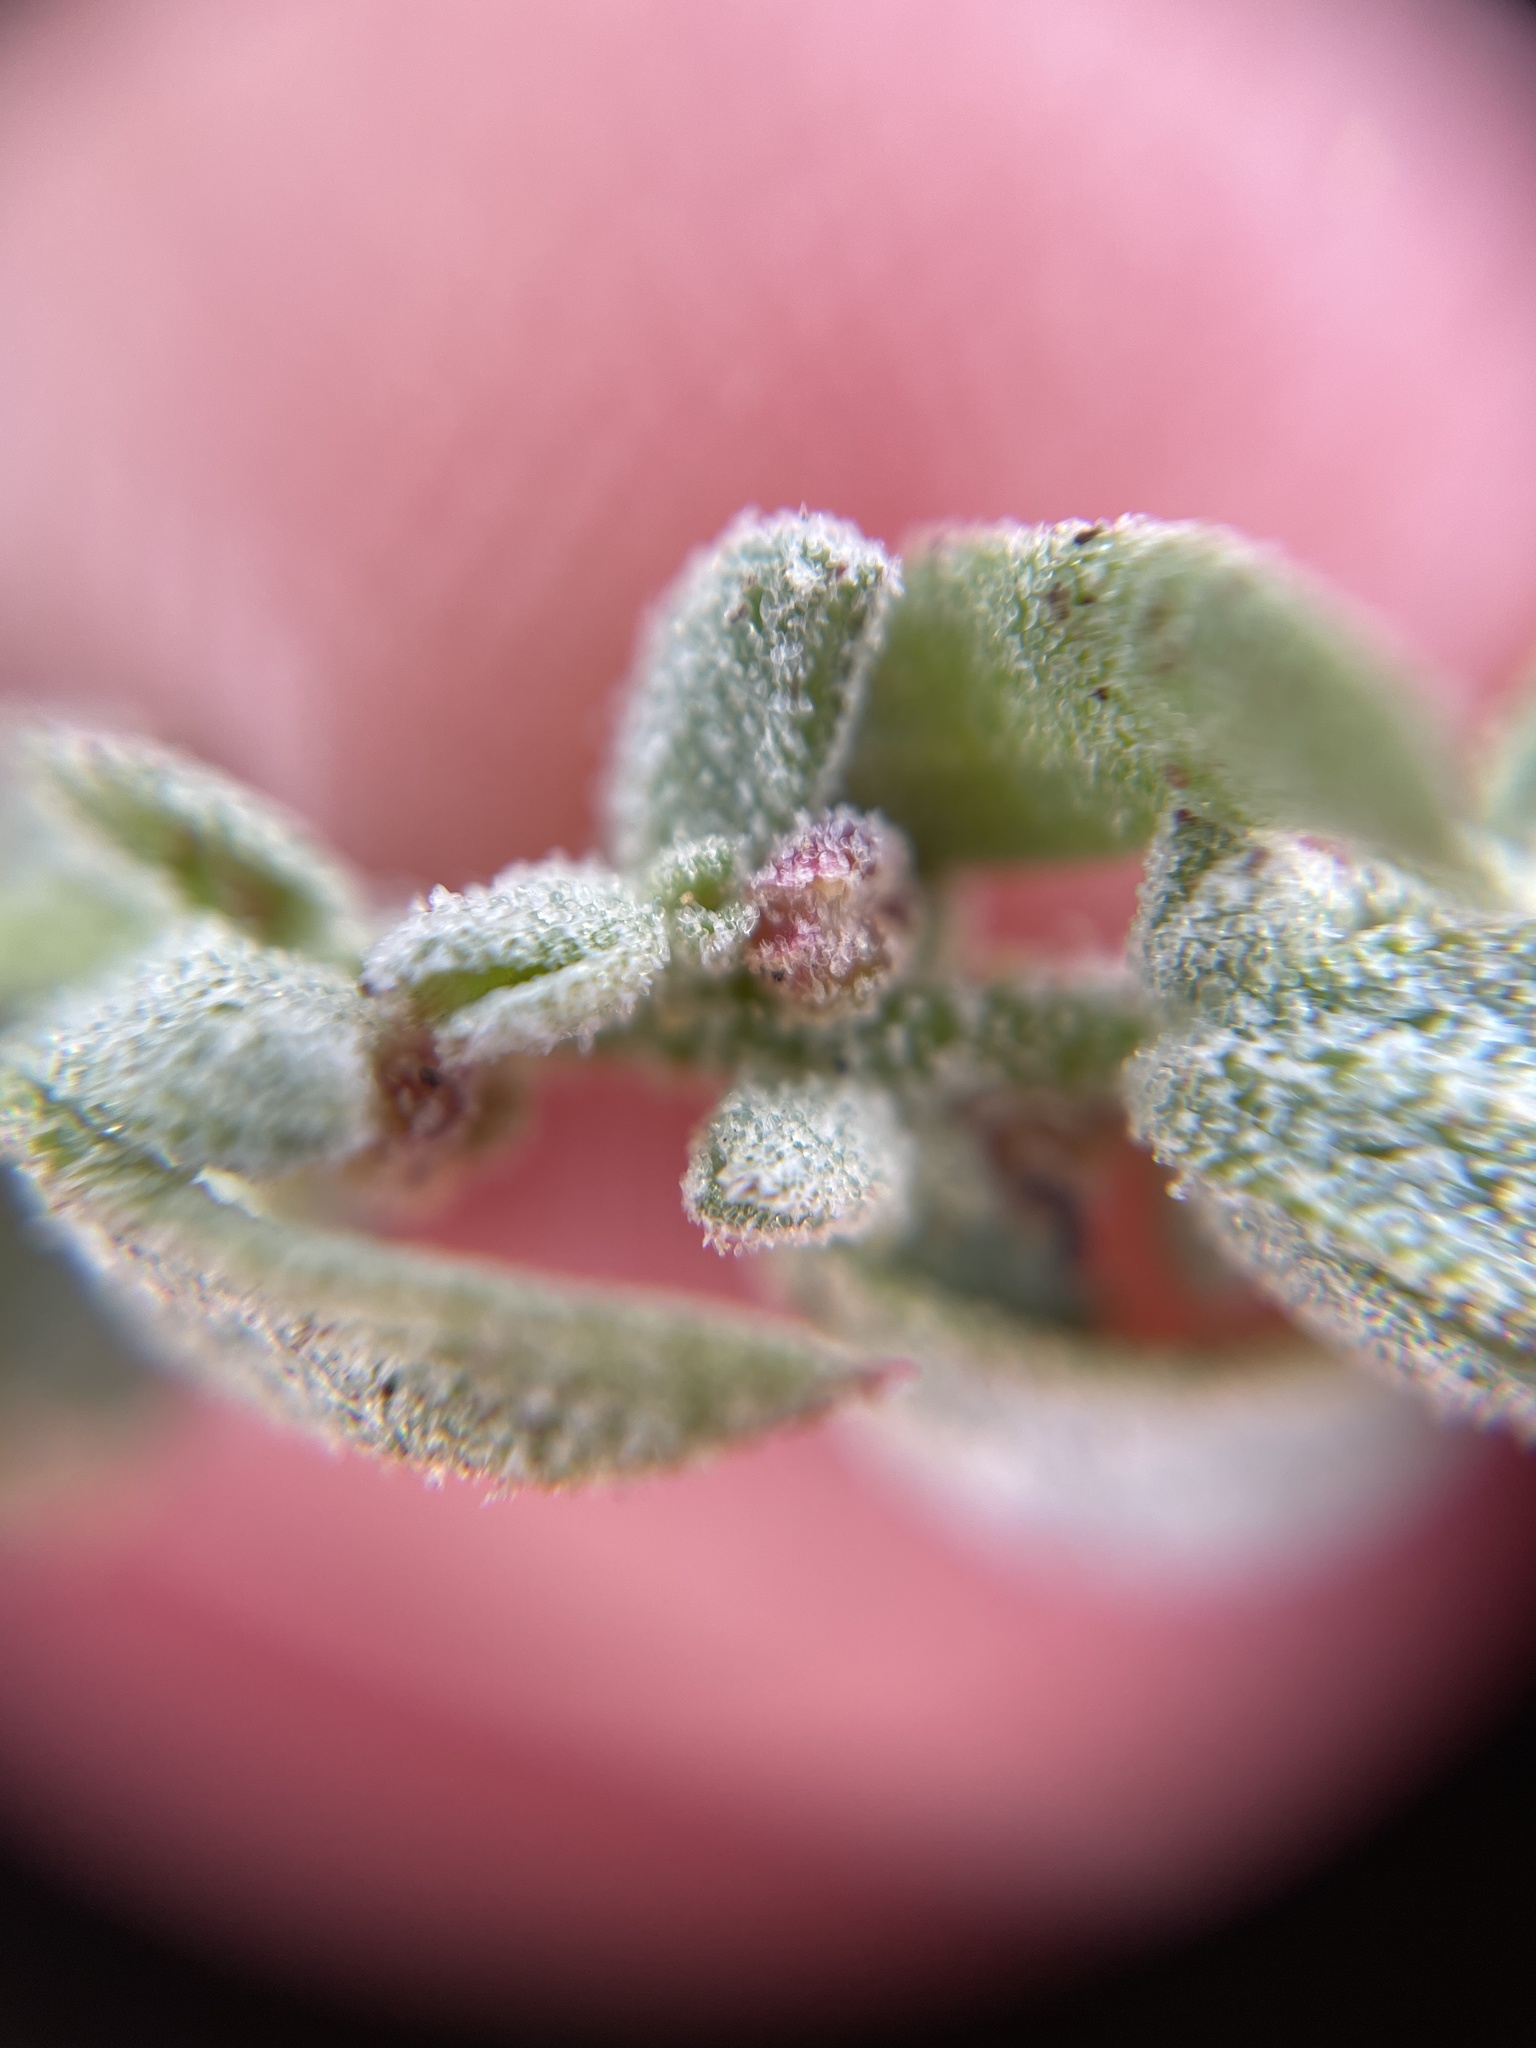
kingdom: Plantae
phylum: Tracheophyta
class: Magnoliopsida
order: Caryophyllales
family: Amaranthaceae
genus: Extriplex
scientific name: Extriplex californica
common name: California saltbush
